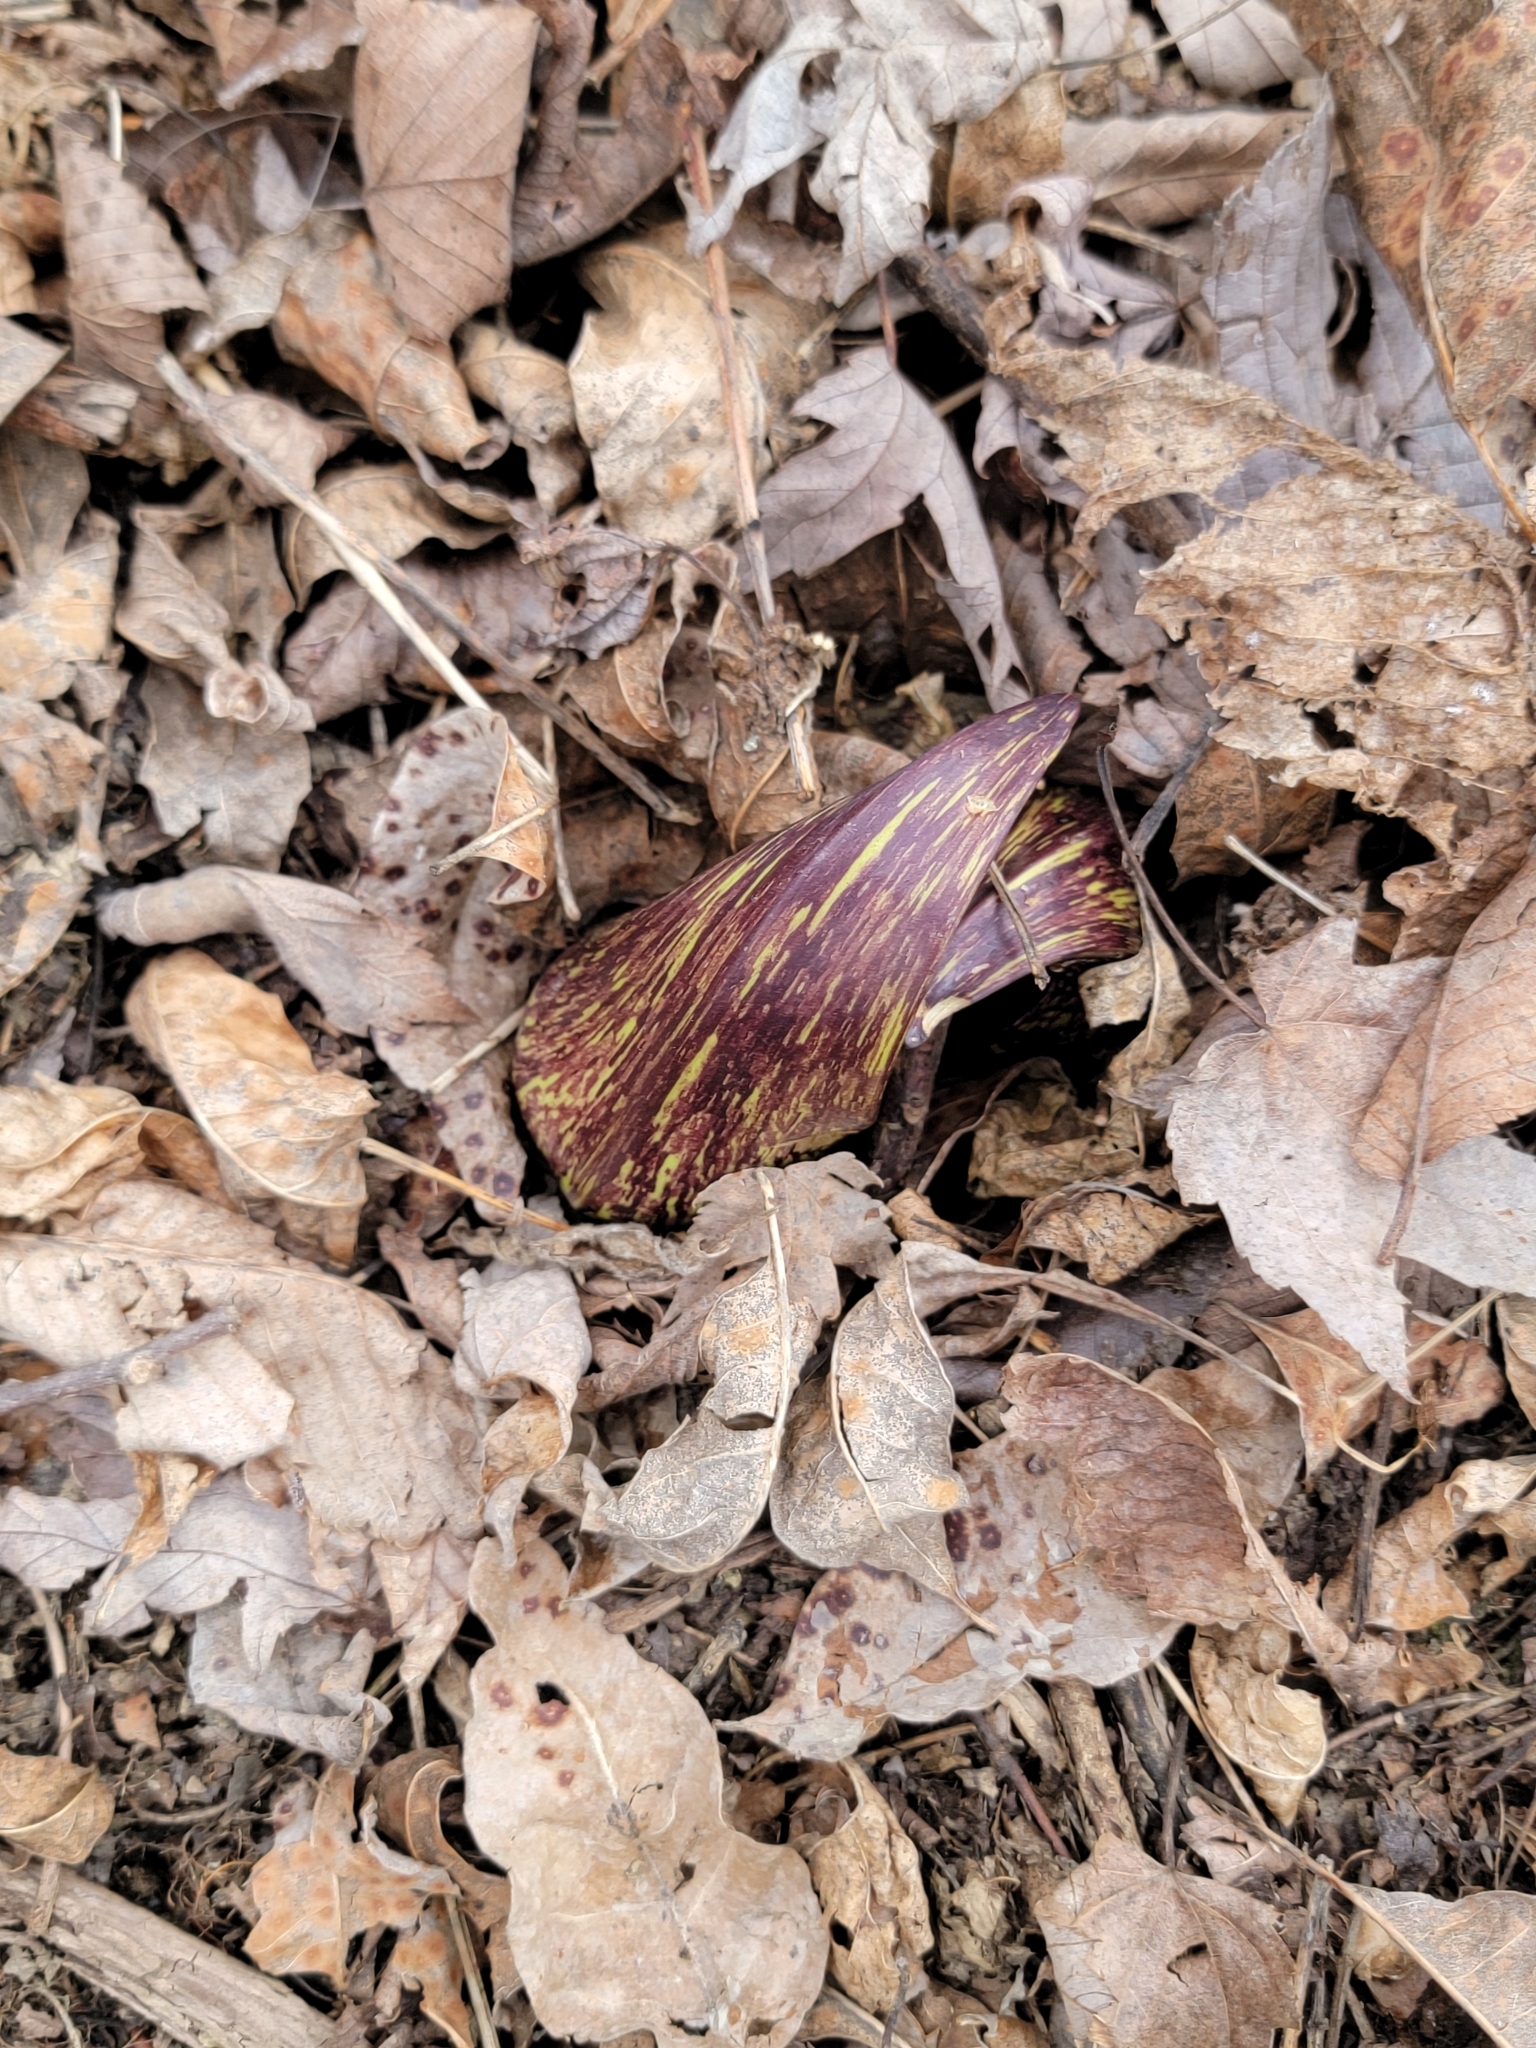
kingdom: Plantae
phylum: Tracheophyta
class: Liliopsida
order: Alismatales
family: Araceae
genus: Symplocarpus
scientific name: Symplocarpus foetidus
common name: Eastern skunk cabbage
